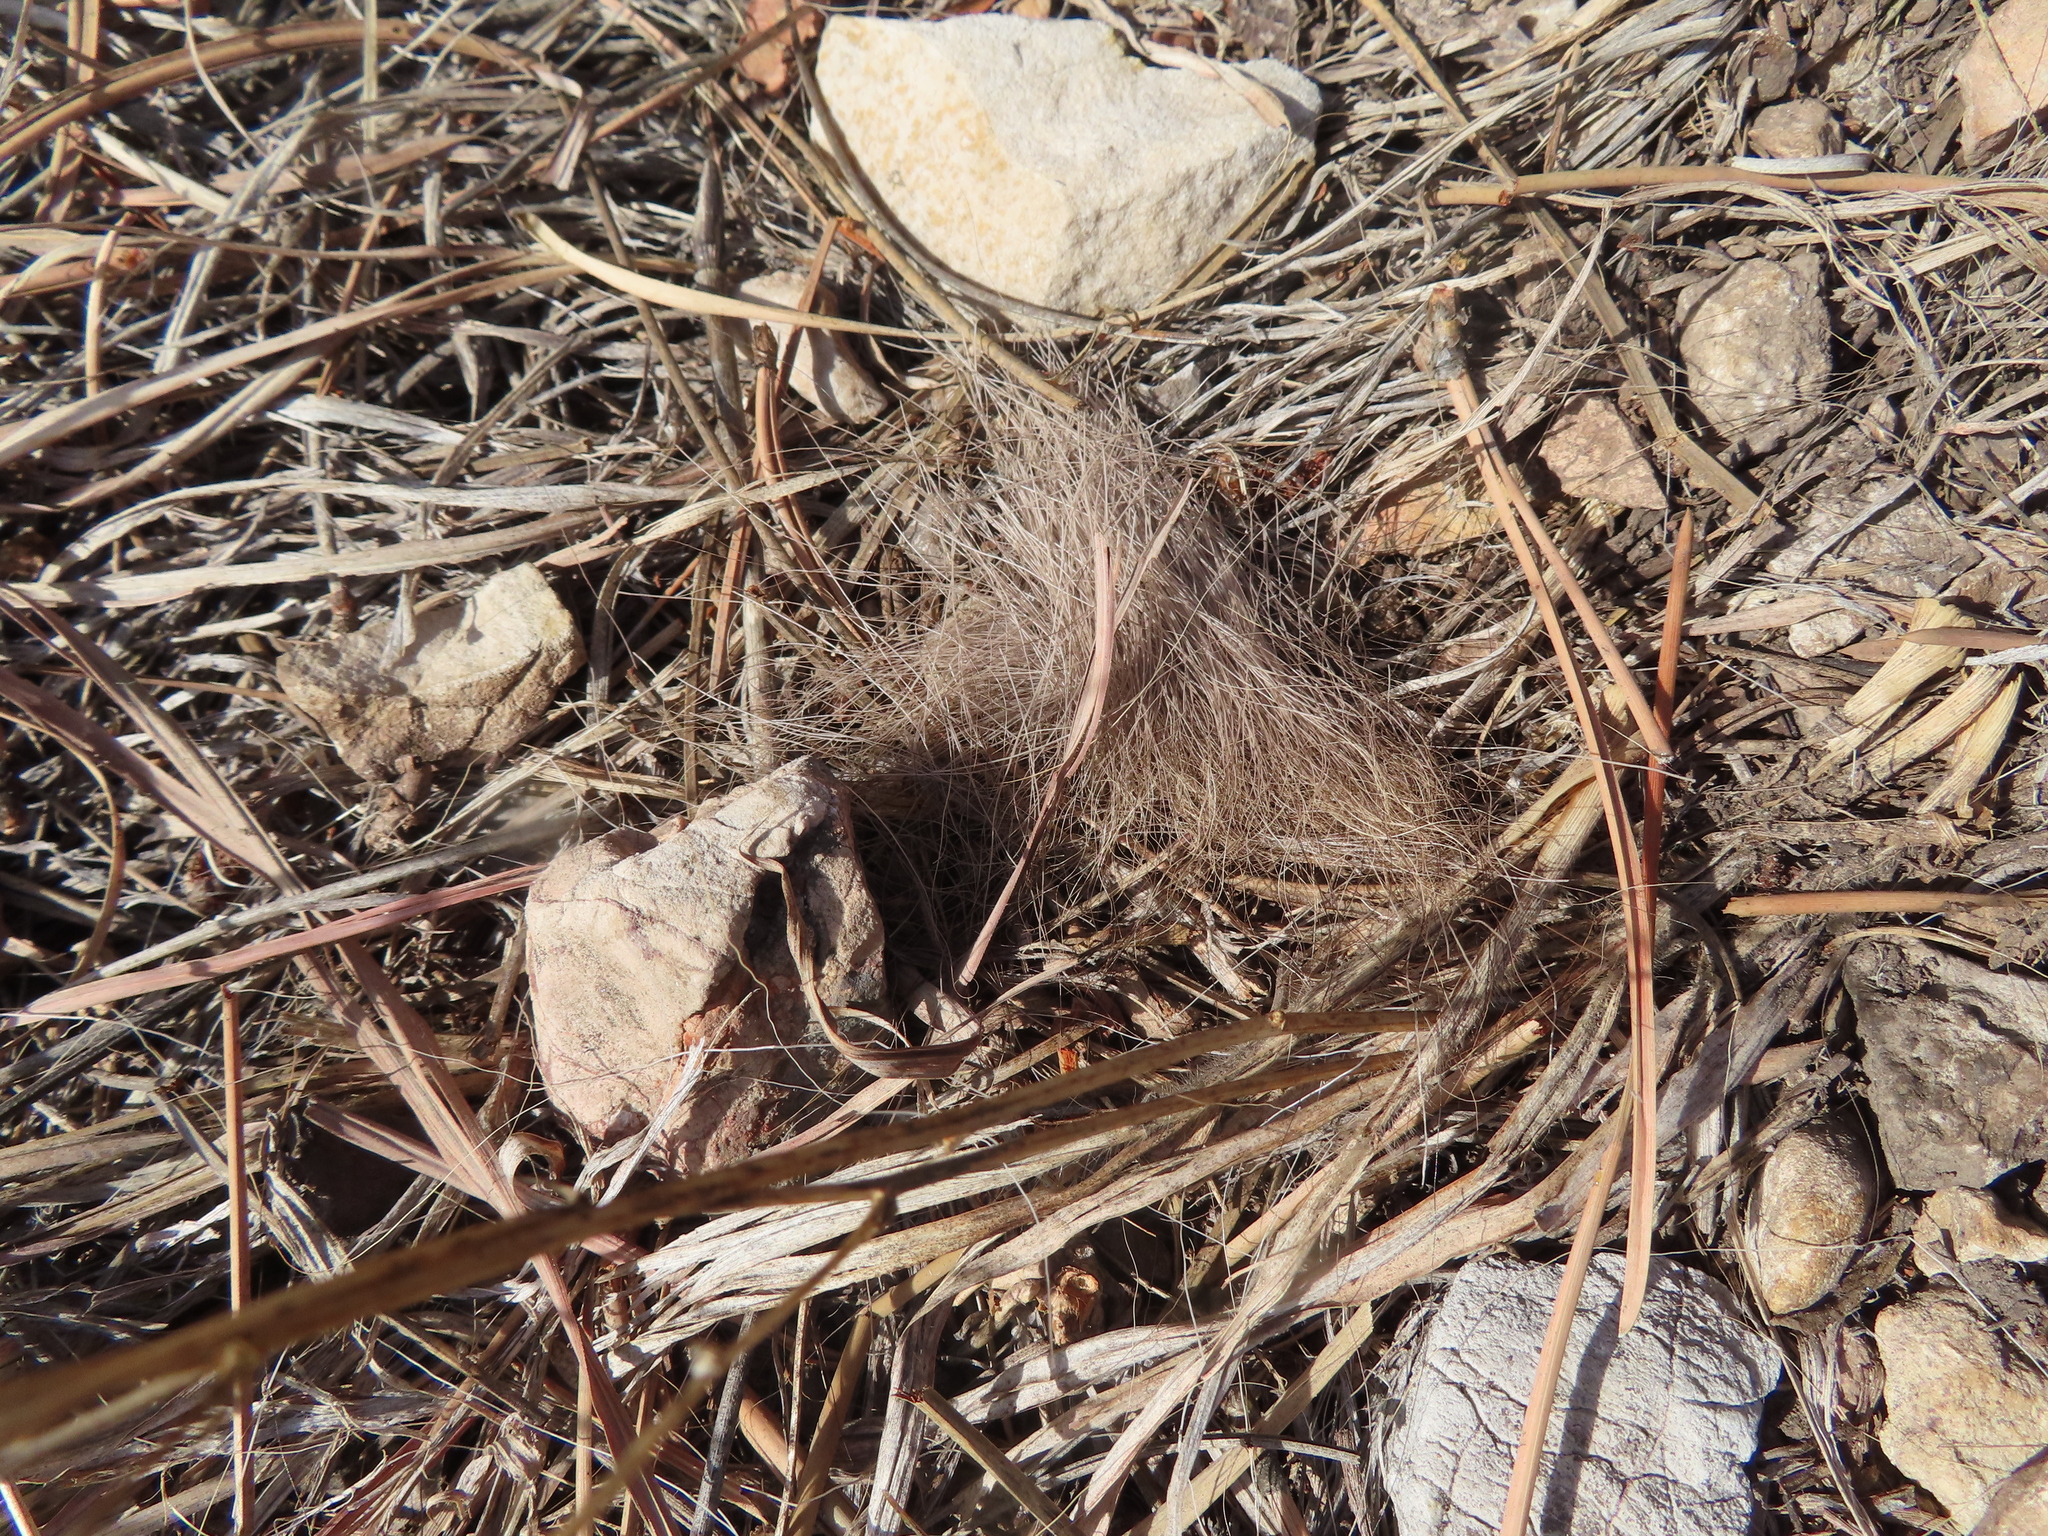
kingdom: Animalia
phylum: Chordata
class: Mammalia
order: Artiodactyla
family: Cervidae
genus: Odocoileus
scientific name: Odocoileus
